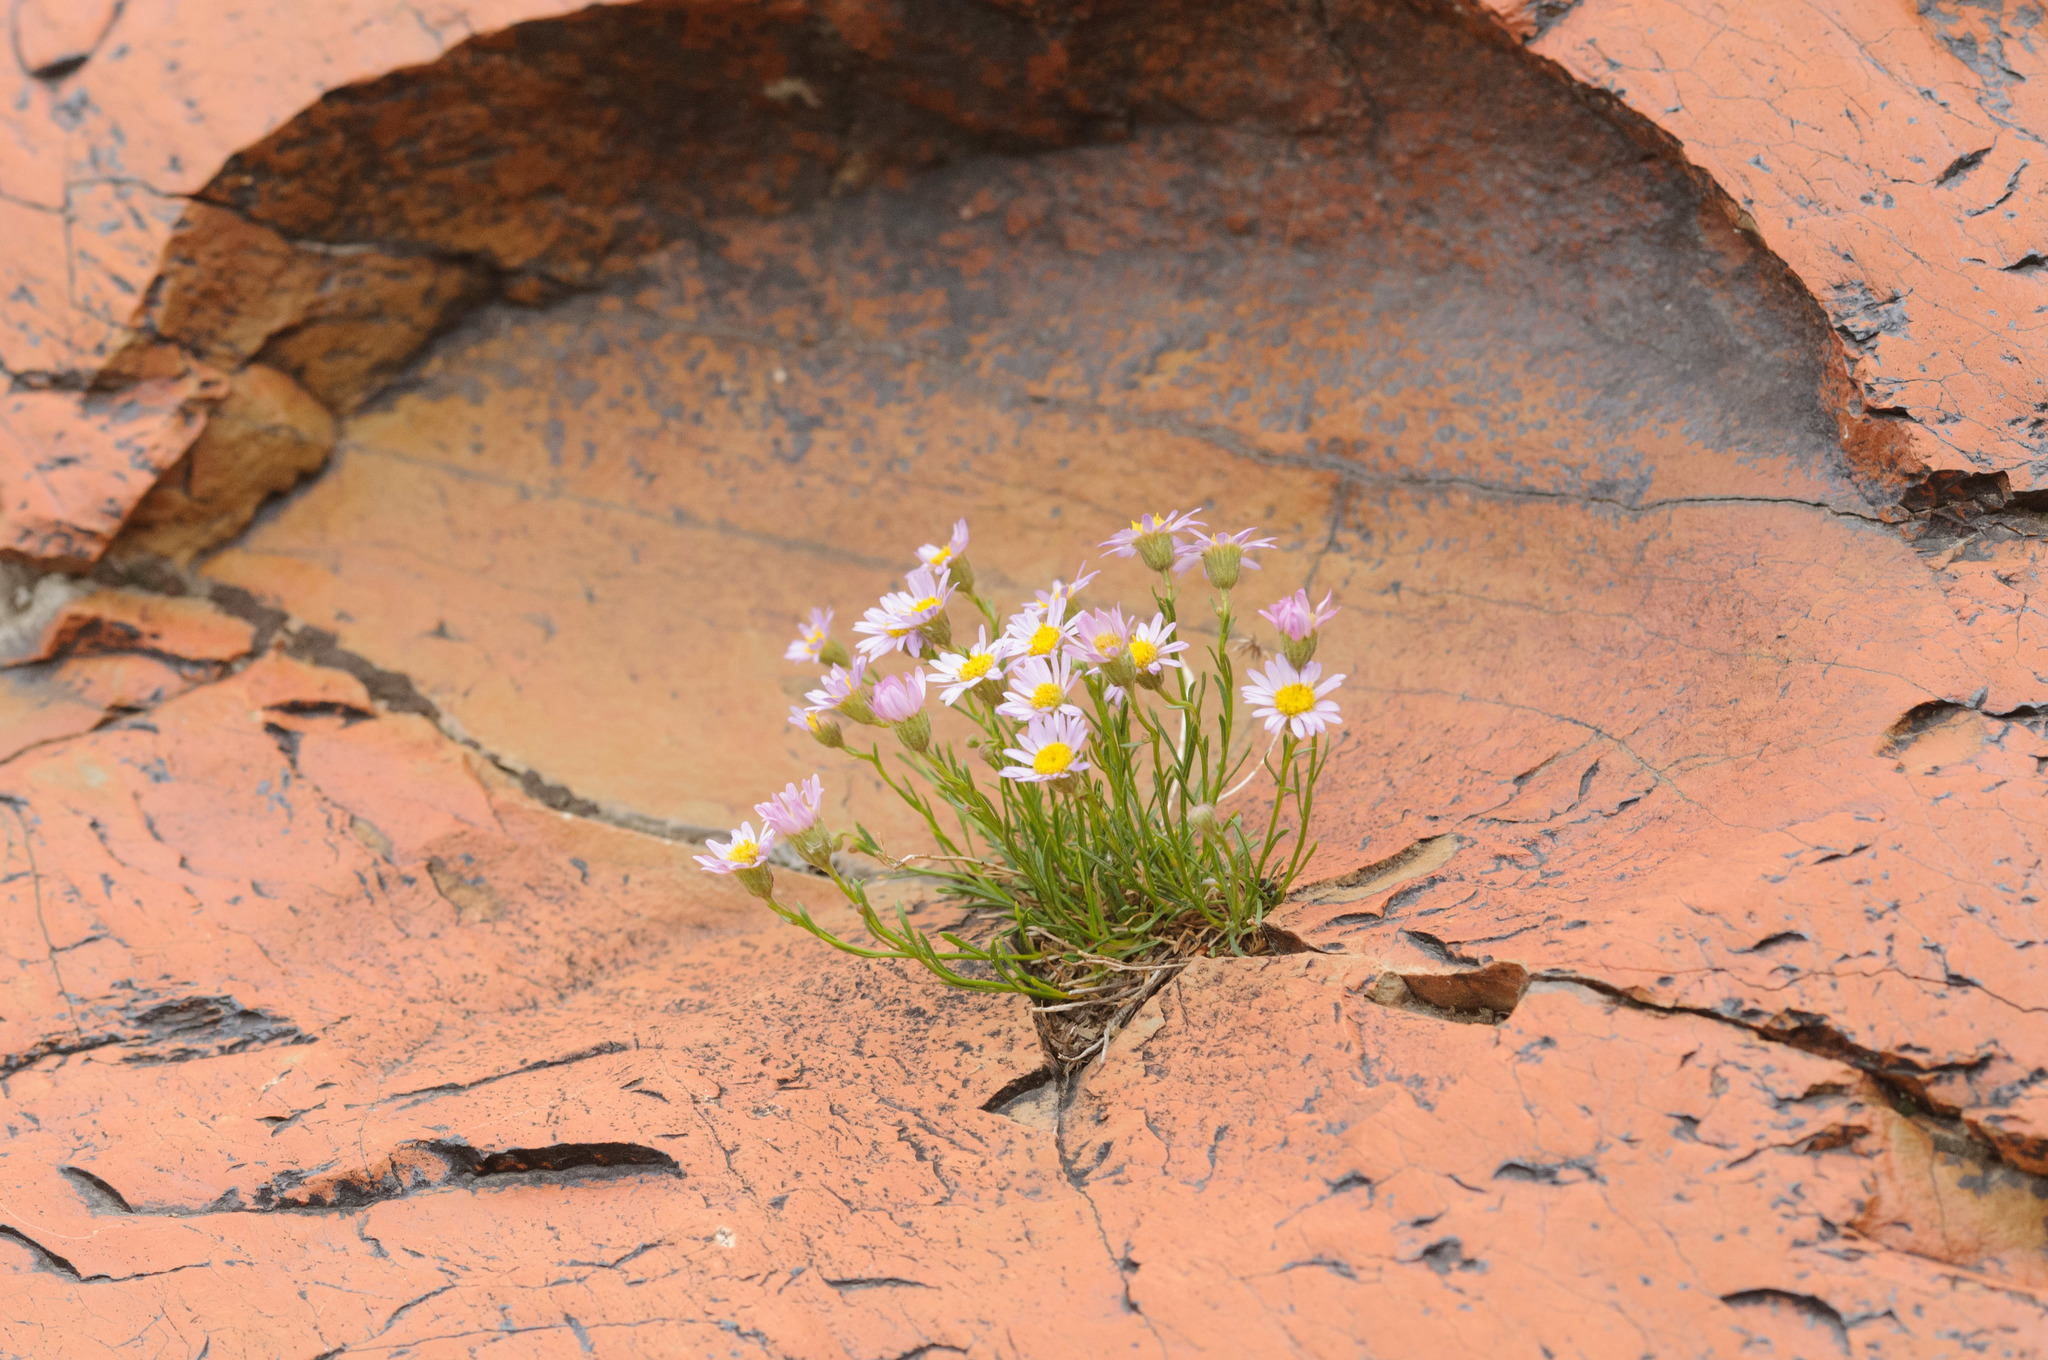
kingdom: Plantae
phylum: Tracheophyta
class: Magnoliopsida
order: Asterales
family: Asteraceae
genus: Erigeron
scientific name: Erigeron arenarioides
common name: Wasatch fleabane
